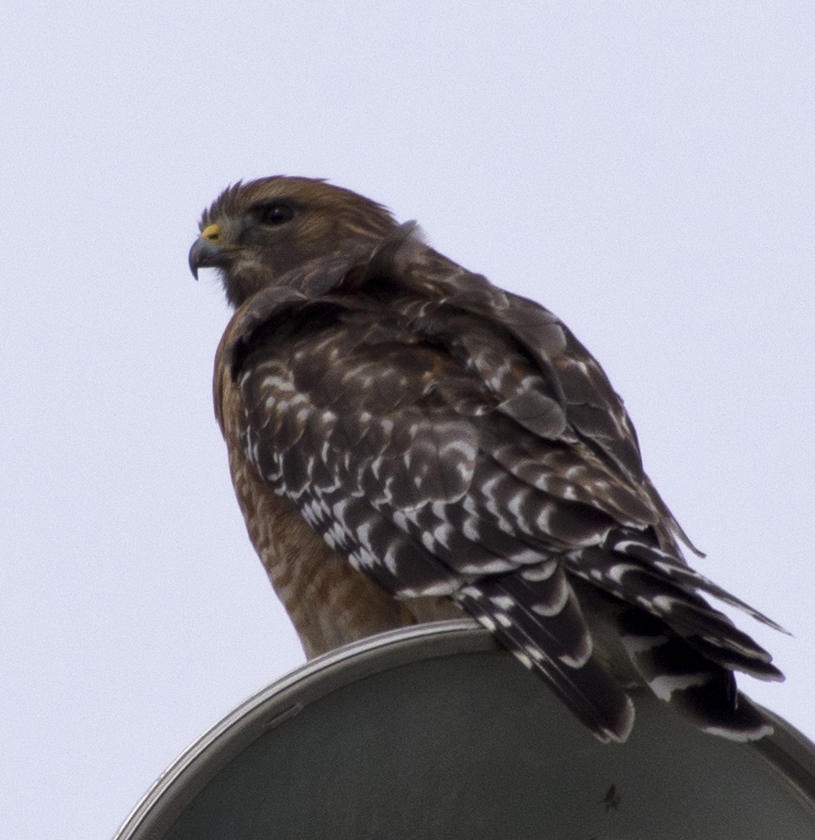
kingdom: Animalia
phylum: Chordata
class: Aves
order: Accipitriformes
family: Accipitridae
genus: Buteo
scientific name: Buteo lineatus
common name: Red-shouldered hawk
